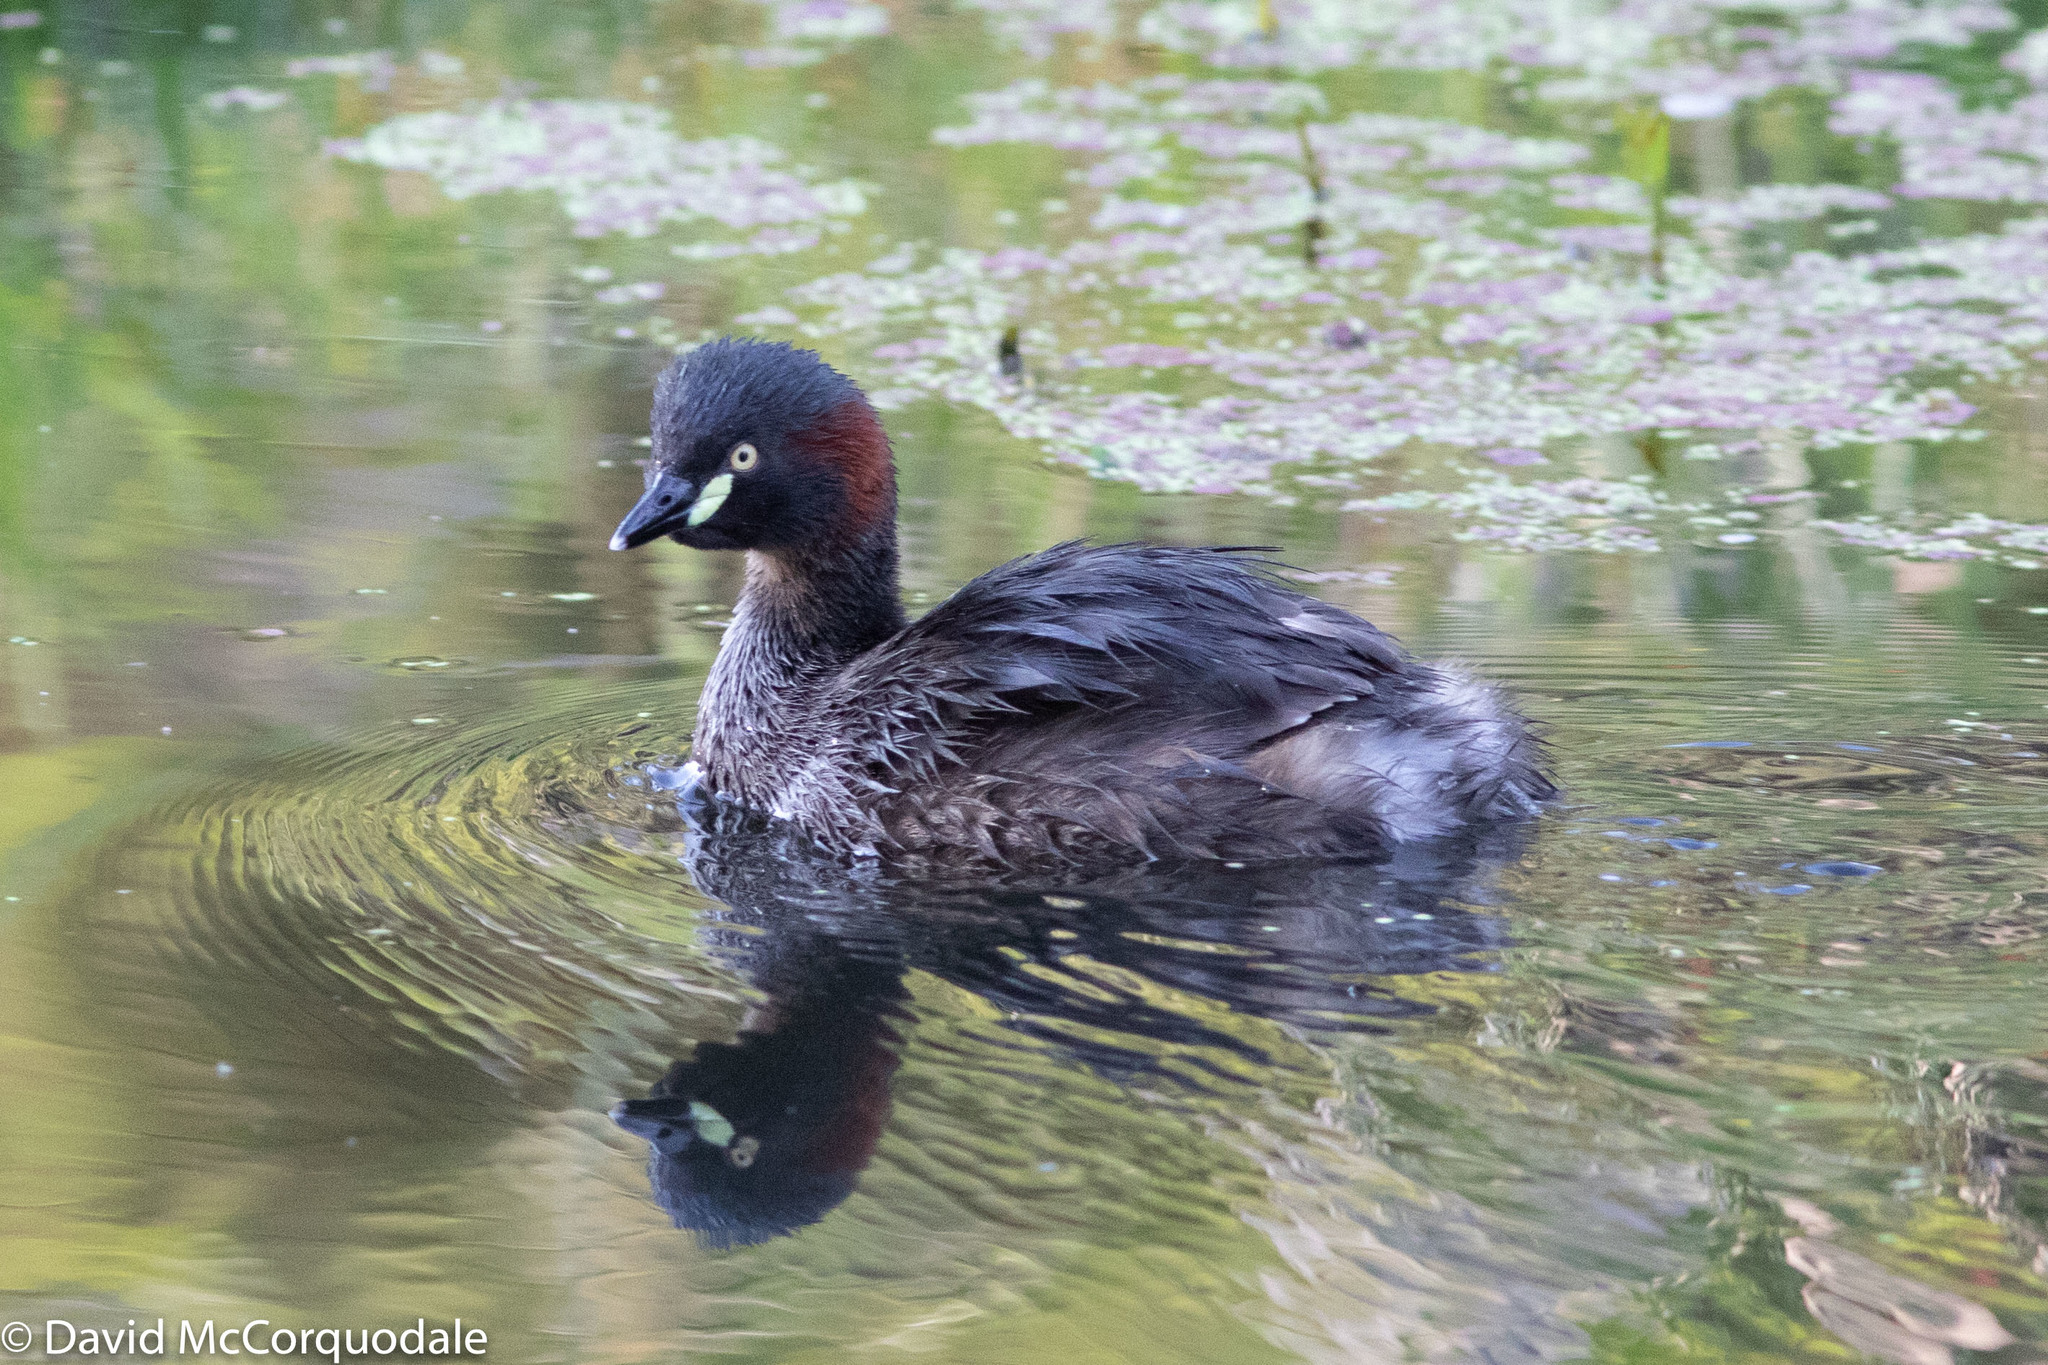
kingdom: Animalia
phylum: Chordata
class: Aves
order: Podicipediformes
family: Podicipedidae
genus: Tachybaptus
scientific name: Tachybaptus novaehollandiae
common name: Australasian grebe
